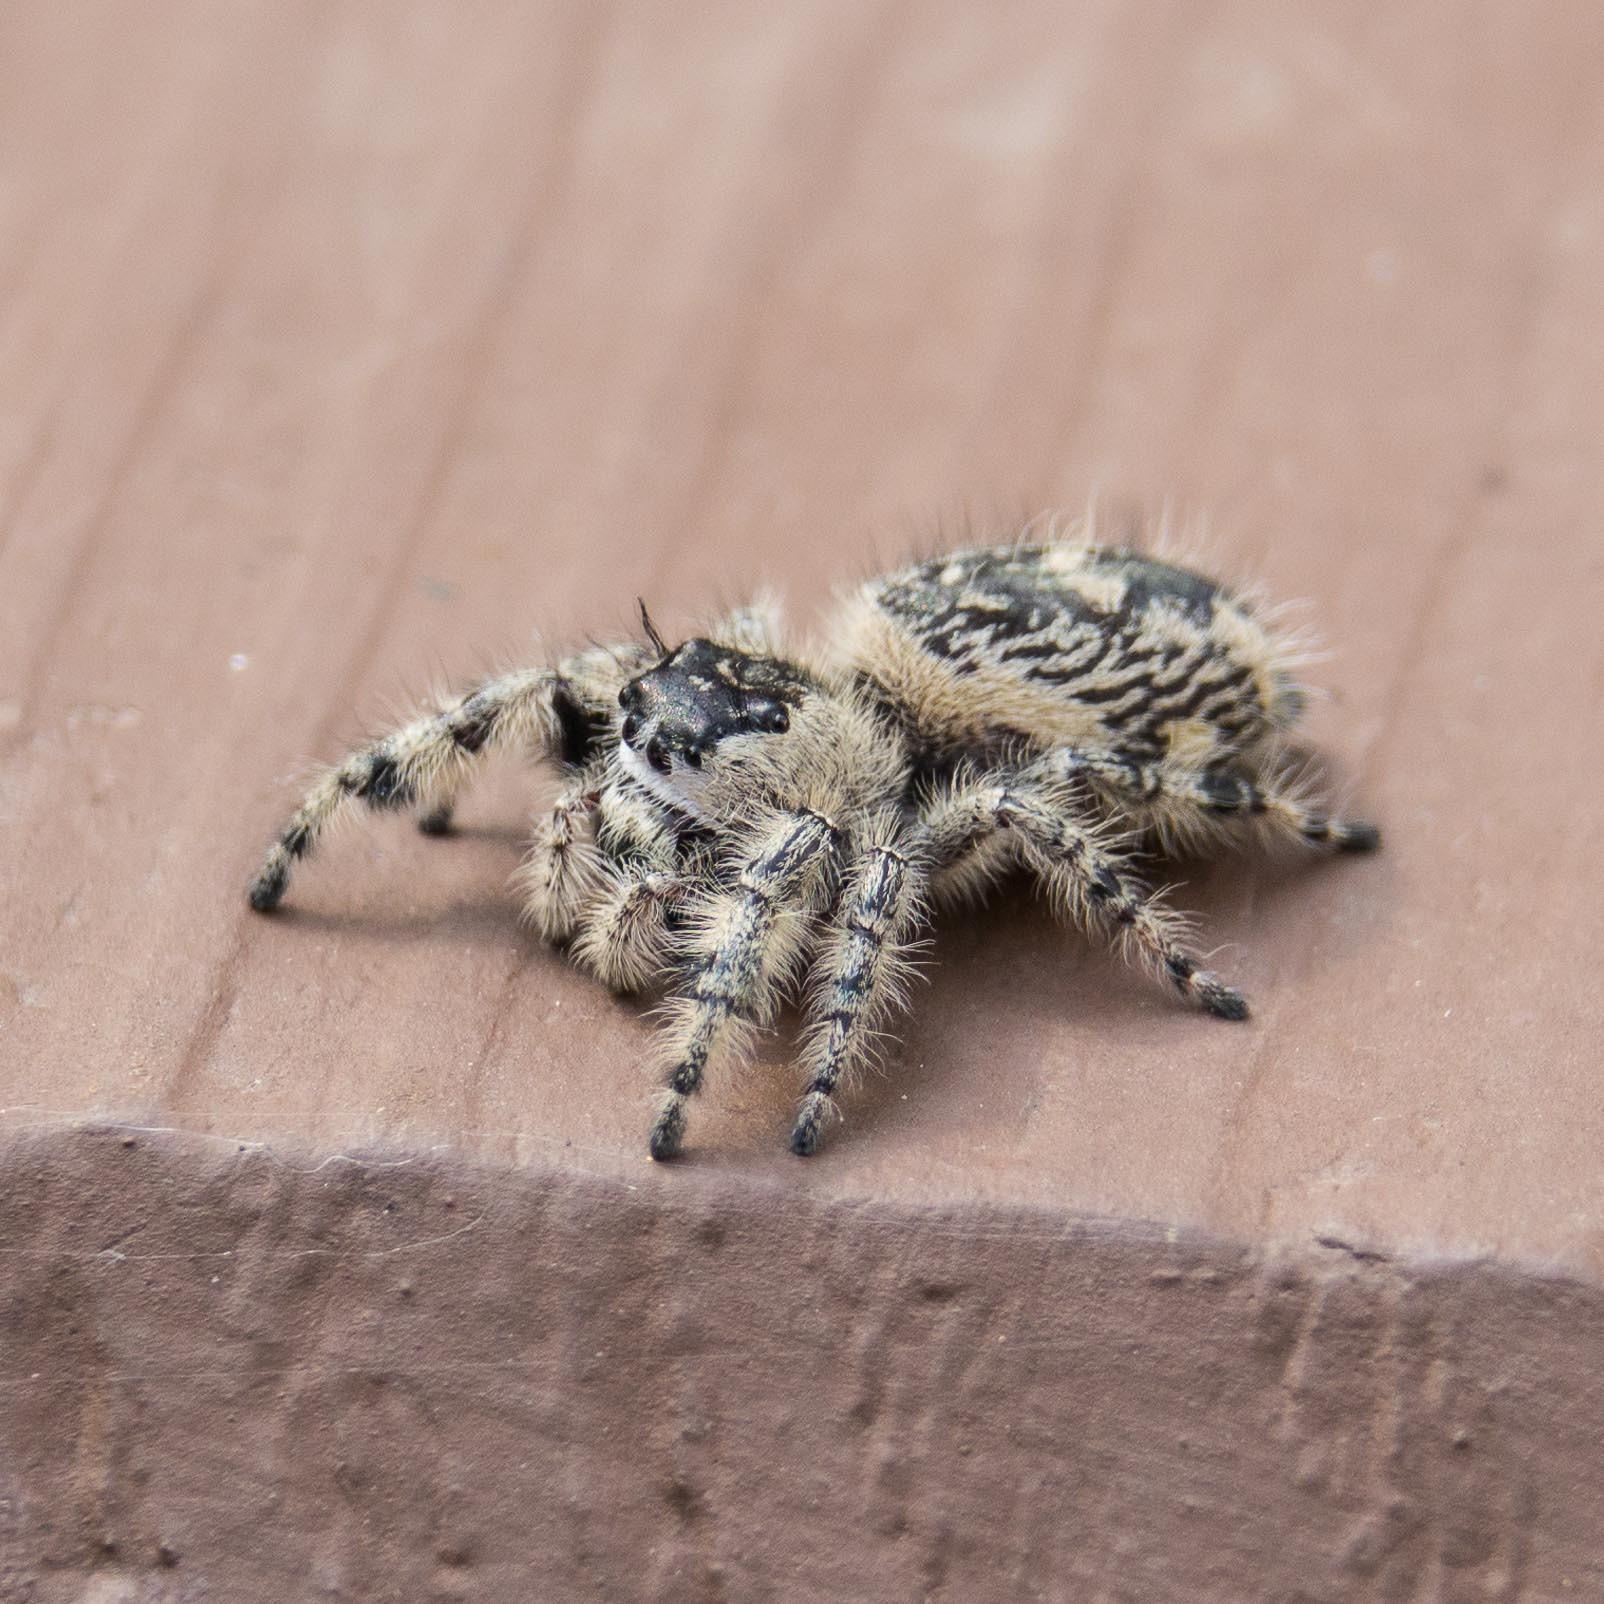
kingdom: Animalia
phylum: Arthropoda
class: Arachnida
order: Araneae
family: Salticidae
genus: Phidippus
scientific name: Phidippus otiosus
